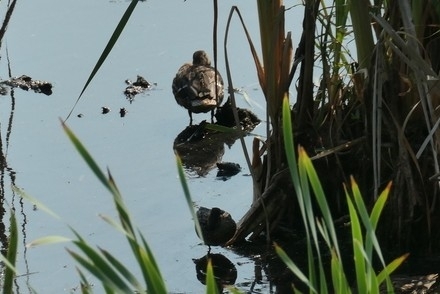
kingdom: Animalia
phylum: Chordata
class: Aves
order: Anseriformes
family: Anatidae
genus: Anas
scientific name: Anas platyrhynchos
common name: Mallard
